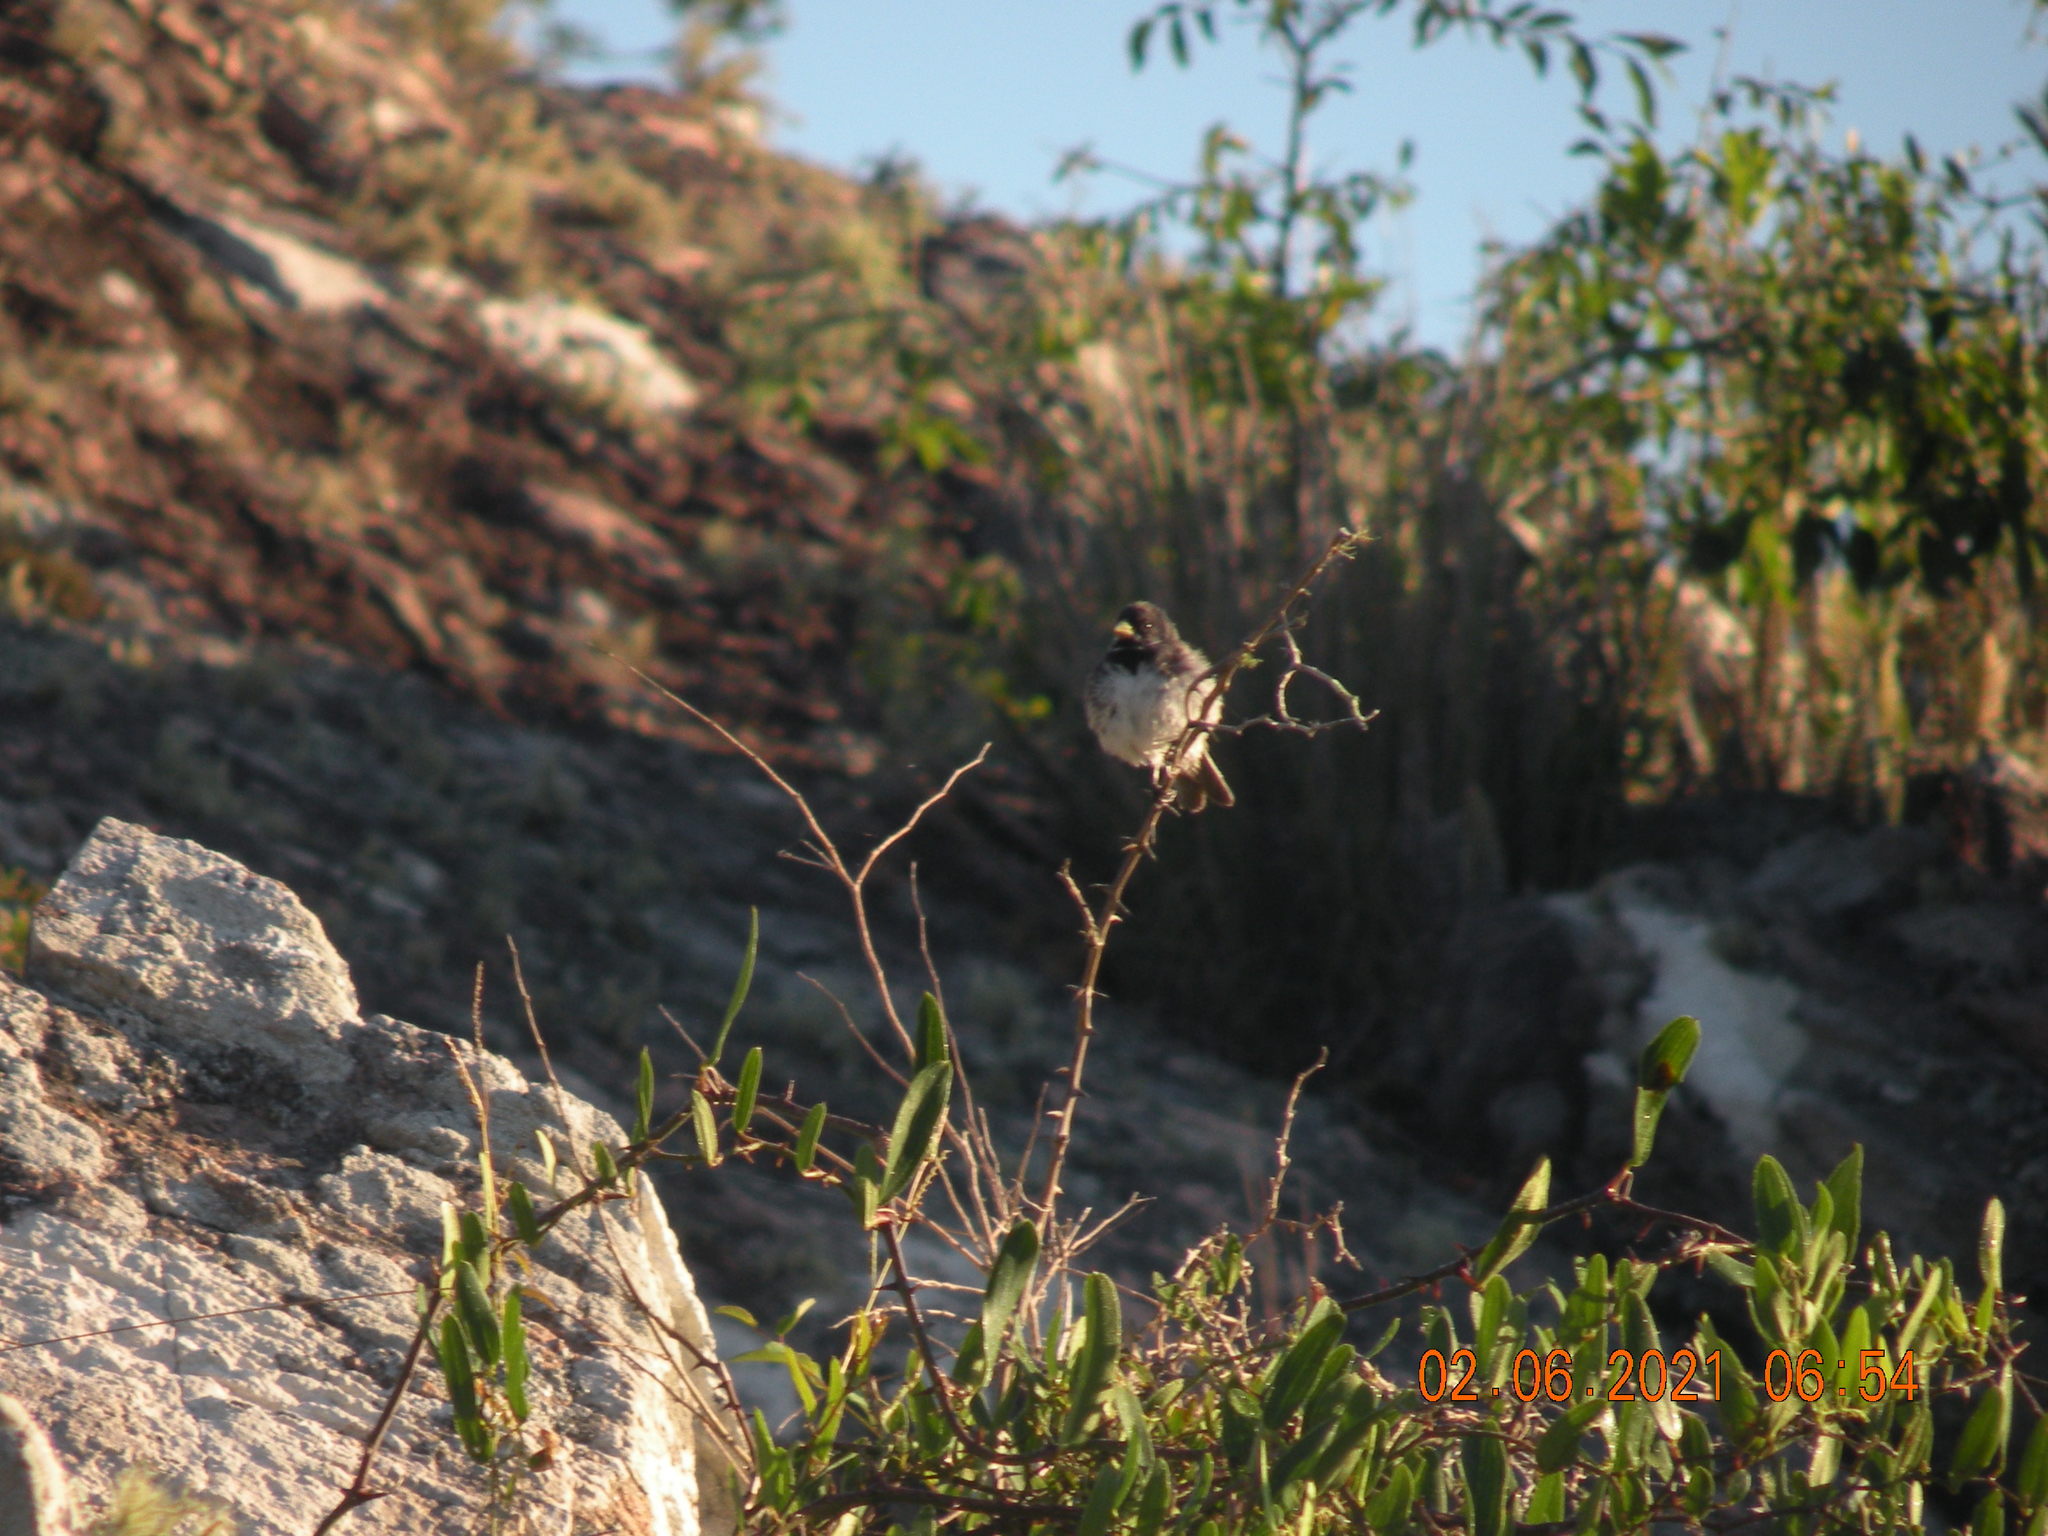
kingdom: Animalia
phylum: Chordata
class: Aves
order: Passeriformes
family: Thraupidae
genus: Sporophila
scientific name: Sporophila caerulescens
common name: Double-collared seedeater
